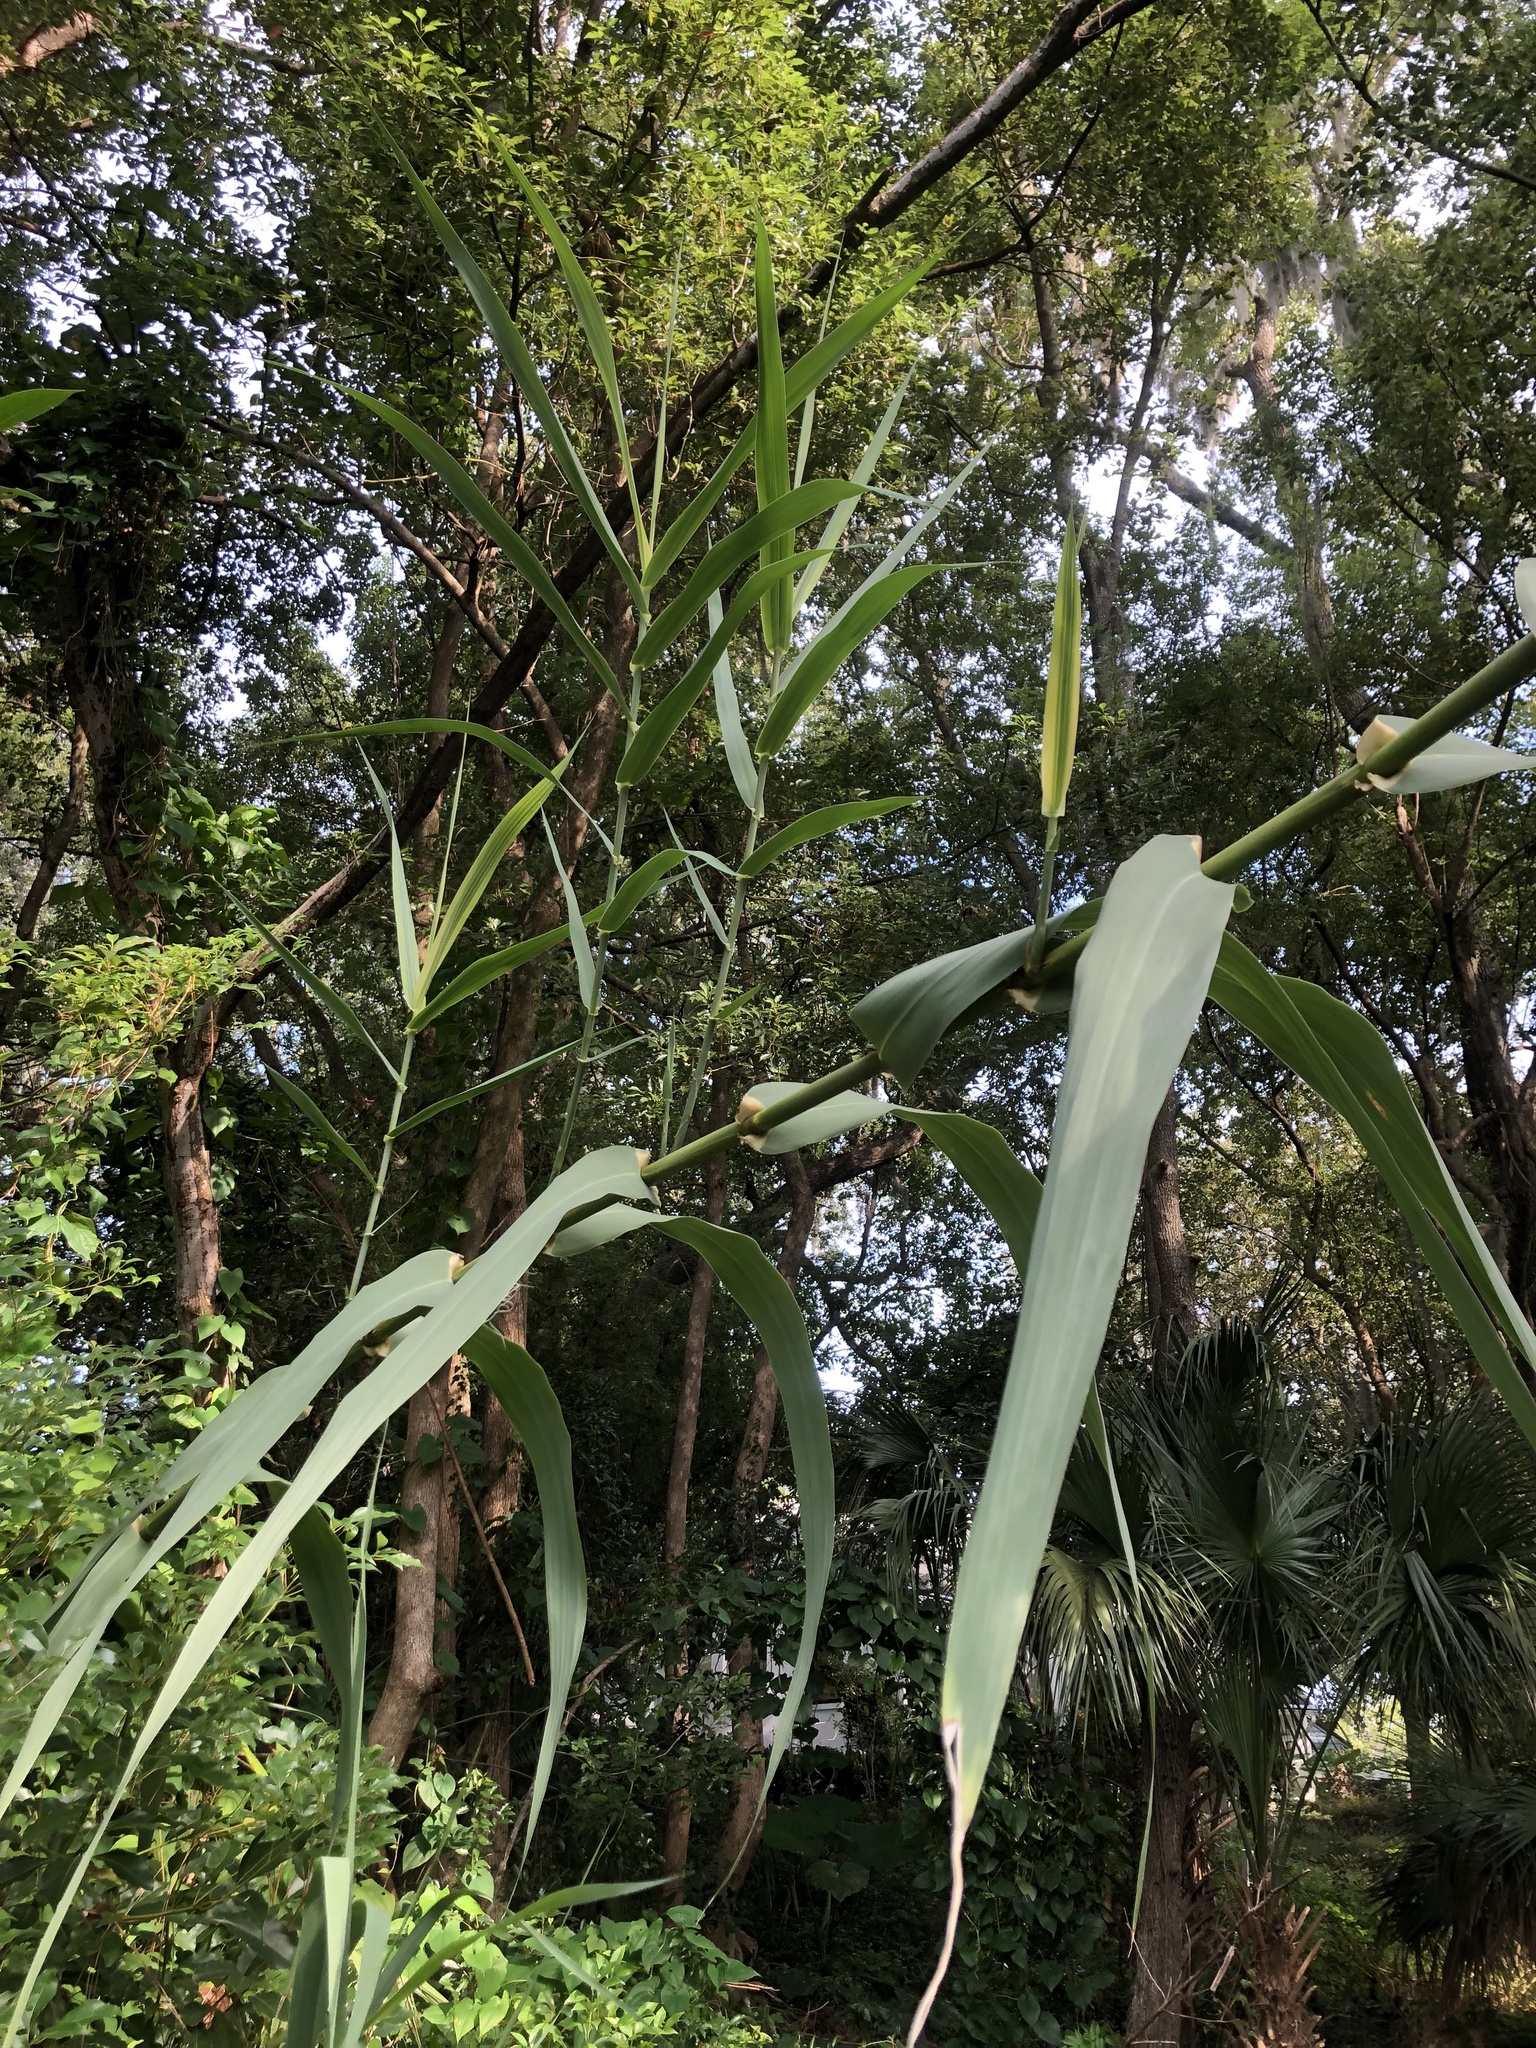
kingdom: Plantae
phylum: Tracheophyta
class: Liliopsida
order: Poales
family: Poaceae
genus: Arundo
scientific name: Arundo donax
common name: Giant reed
